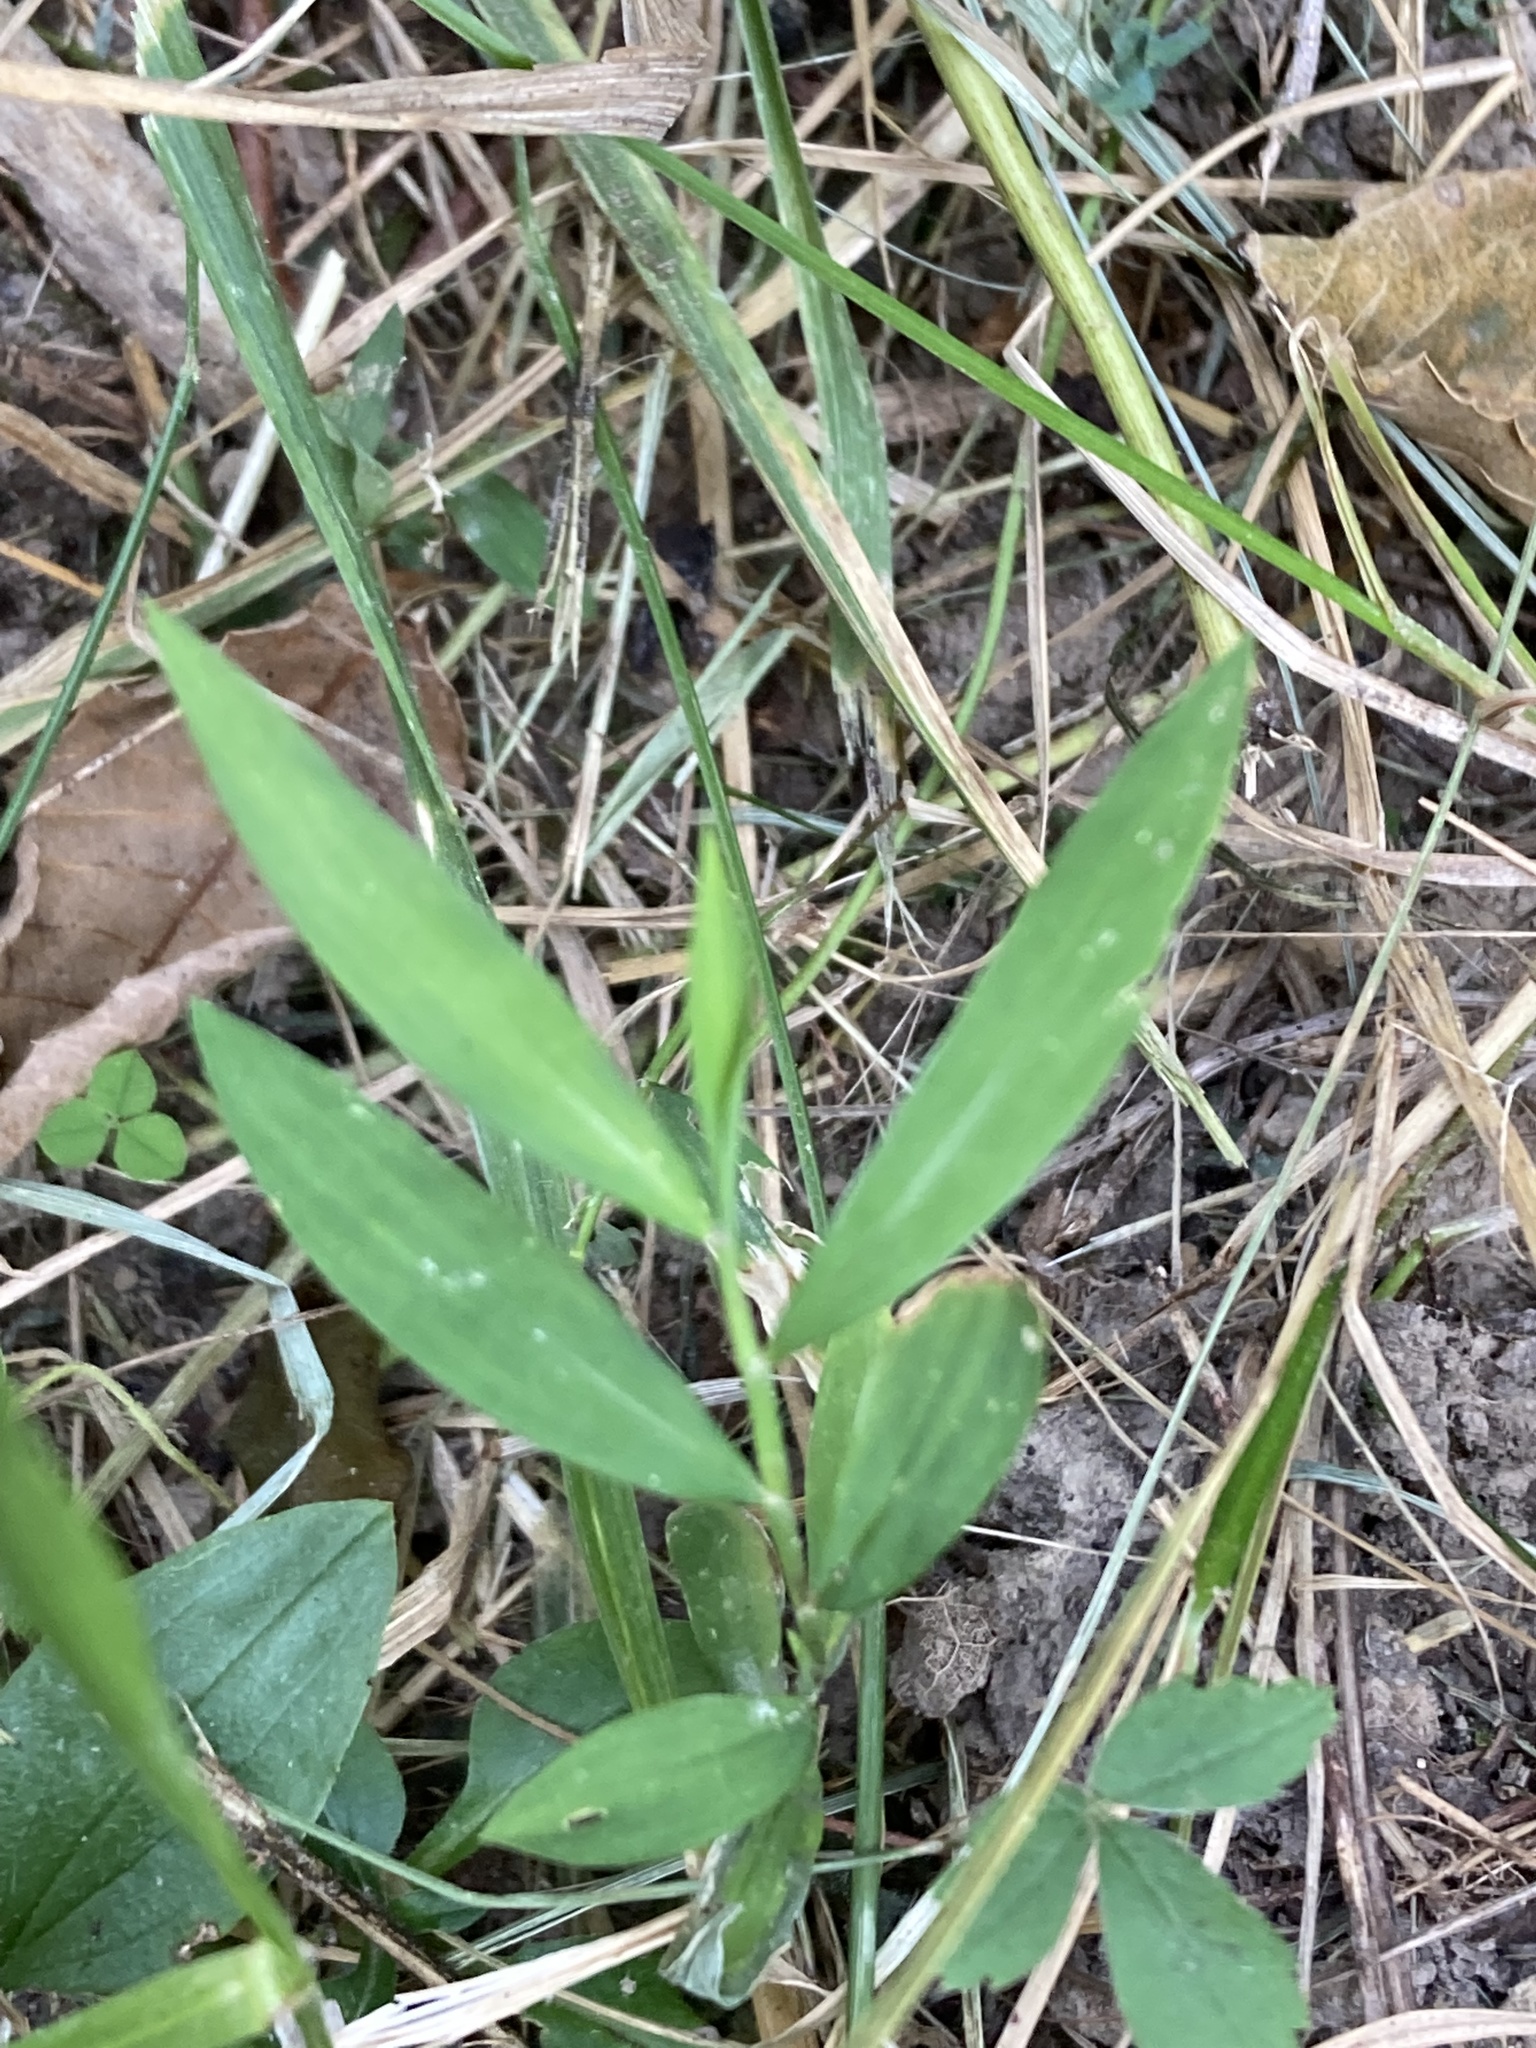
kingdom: Plantae
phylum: Tracheophyta
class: Liliopsida
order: Poales
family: Poaceae
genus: Microstegium
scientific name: Microstegium vimineum
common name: Japanese stiltgrass
